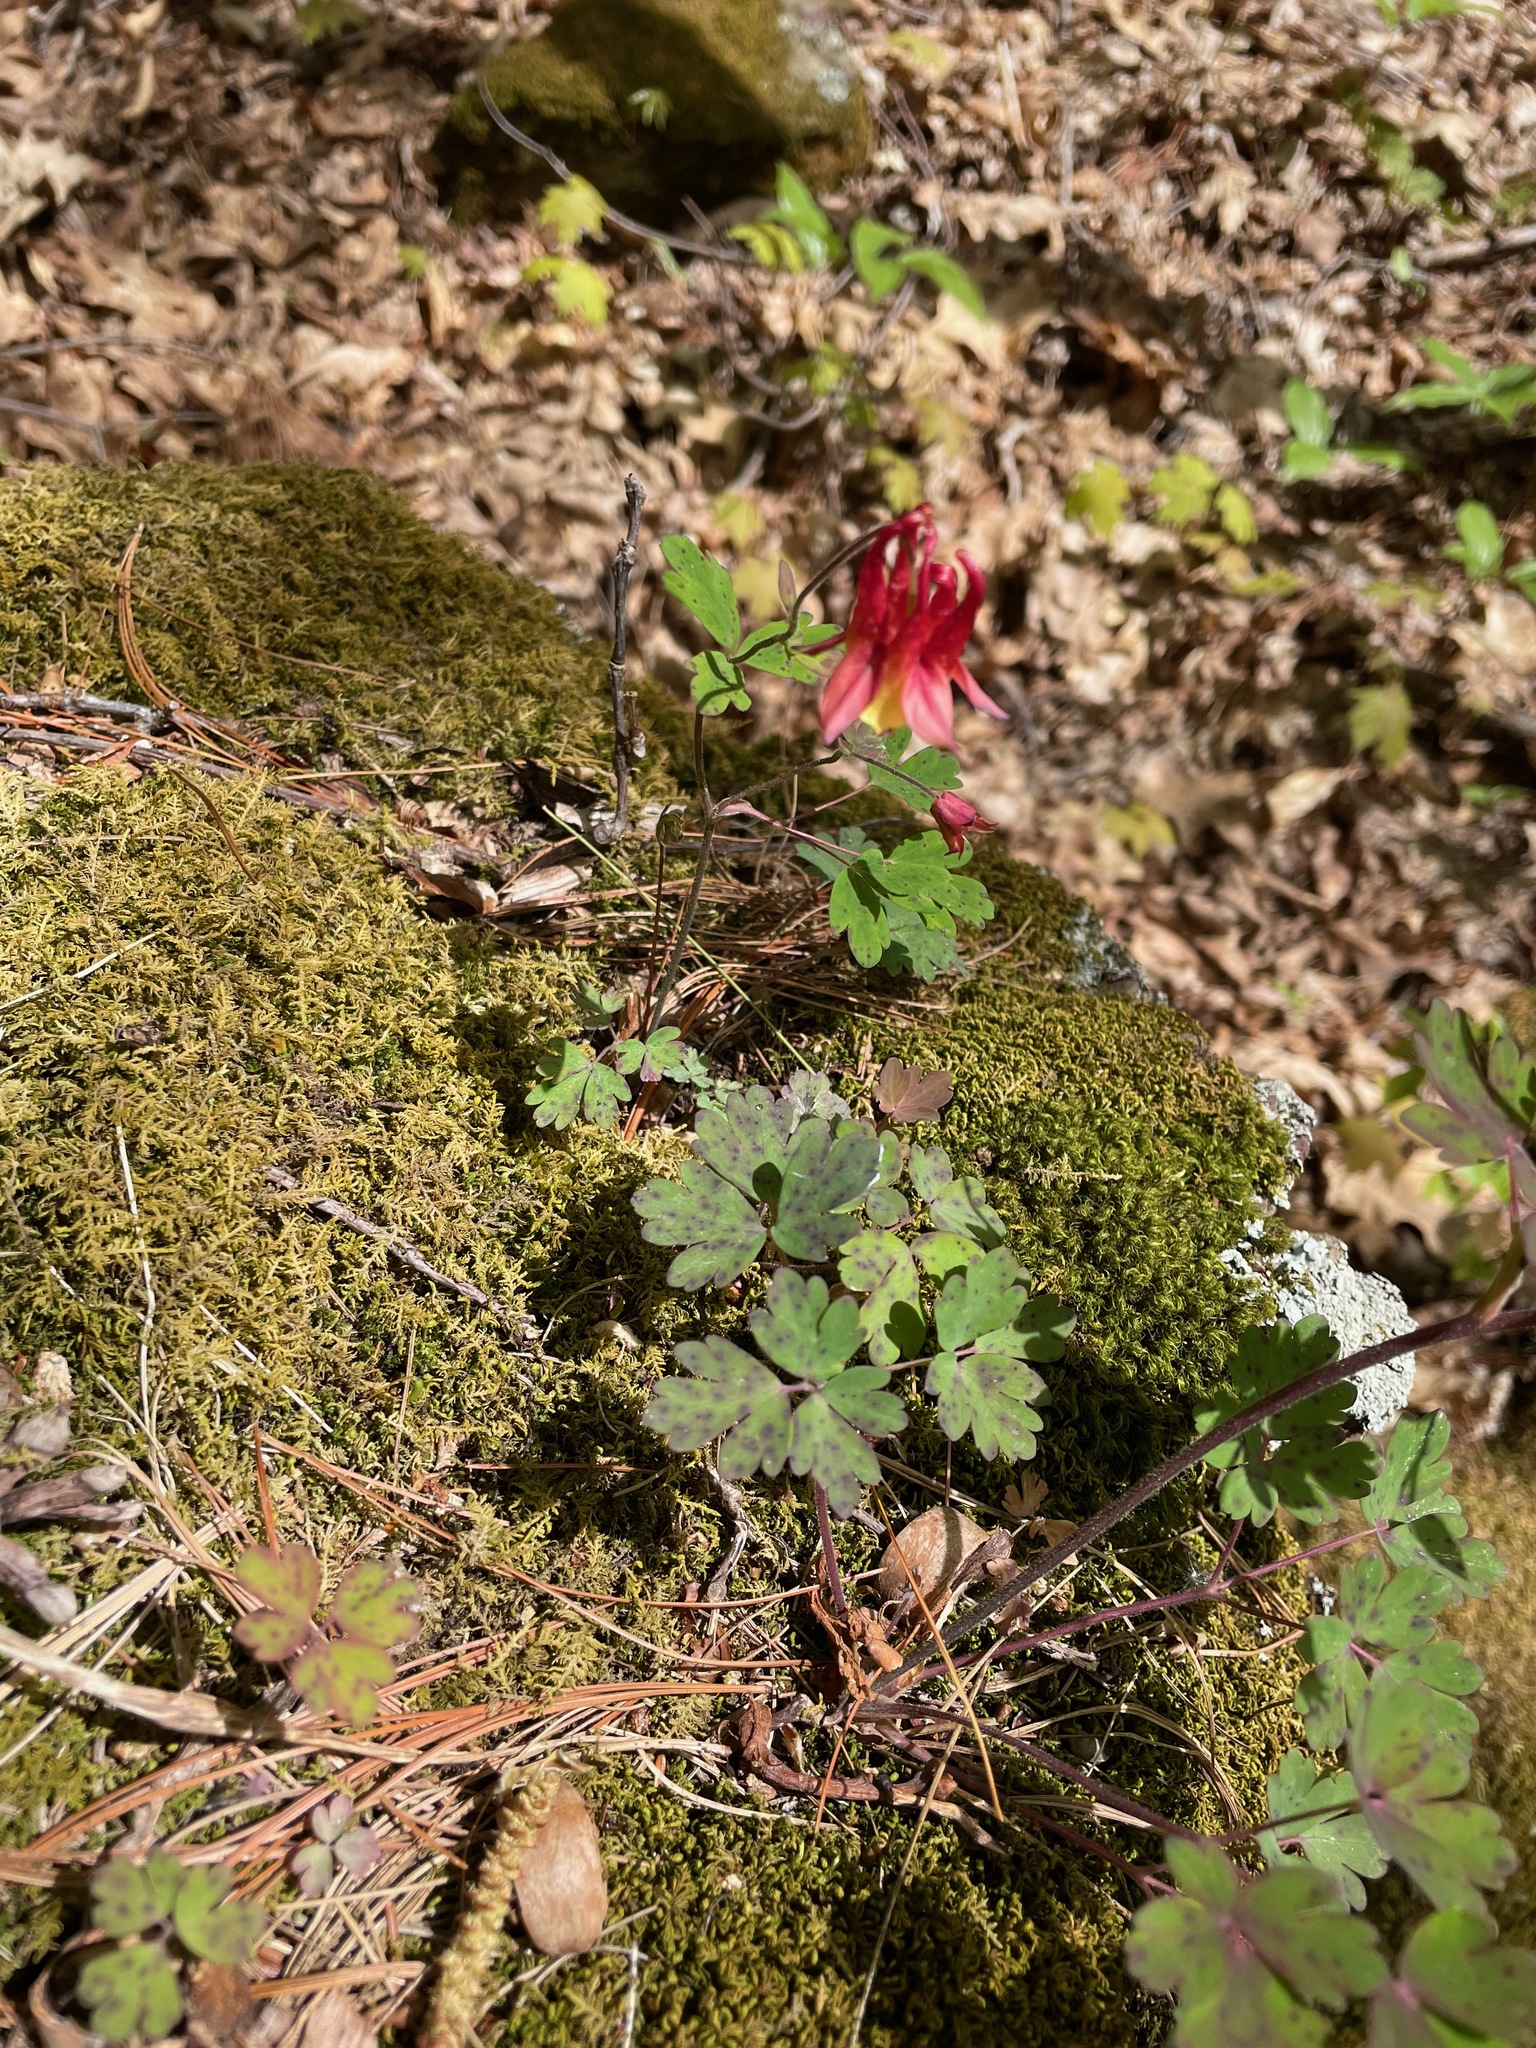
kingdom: Plantae
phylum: Tracheophyta
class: Magnoliopsida
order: Ranunculales
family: Ranunculaceae
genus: Aquilegia
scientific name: Aquilegia canadensis
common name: American columbine
